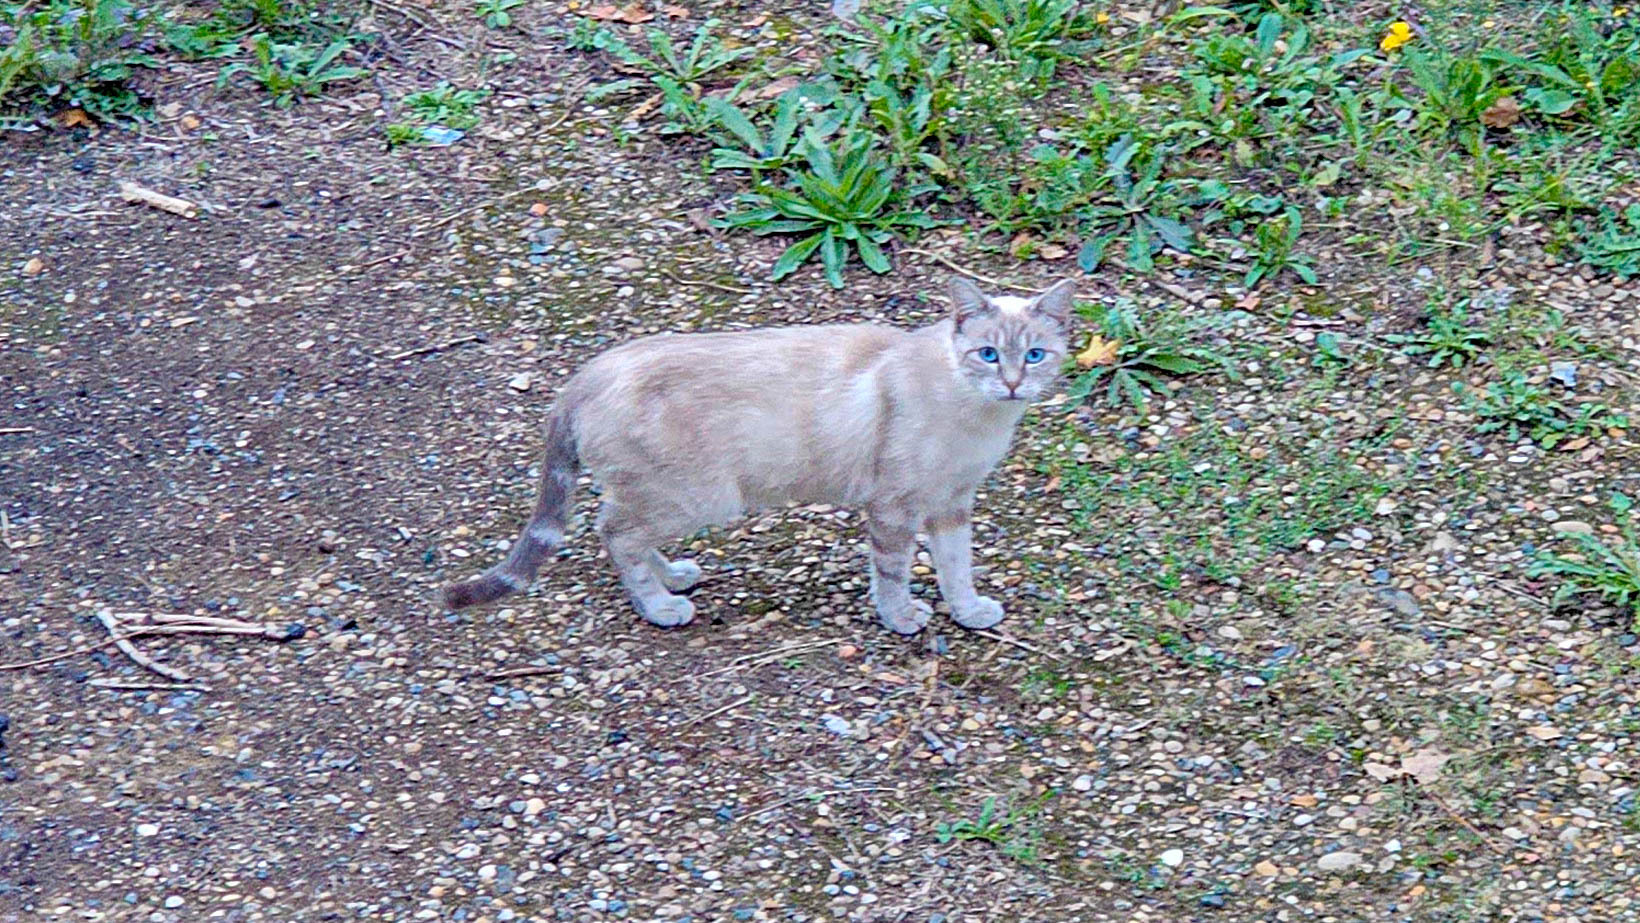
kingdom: Animalia
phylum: Chordata
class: Mammalia
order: Carnivora
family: Felidae
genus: Felis
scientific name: Felis catus
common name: Domestic cat
